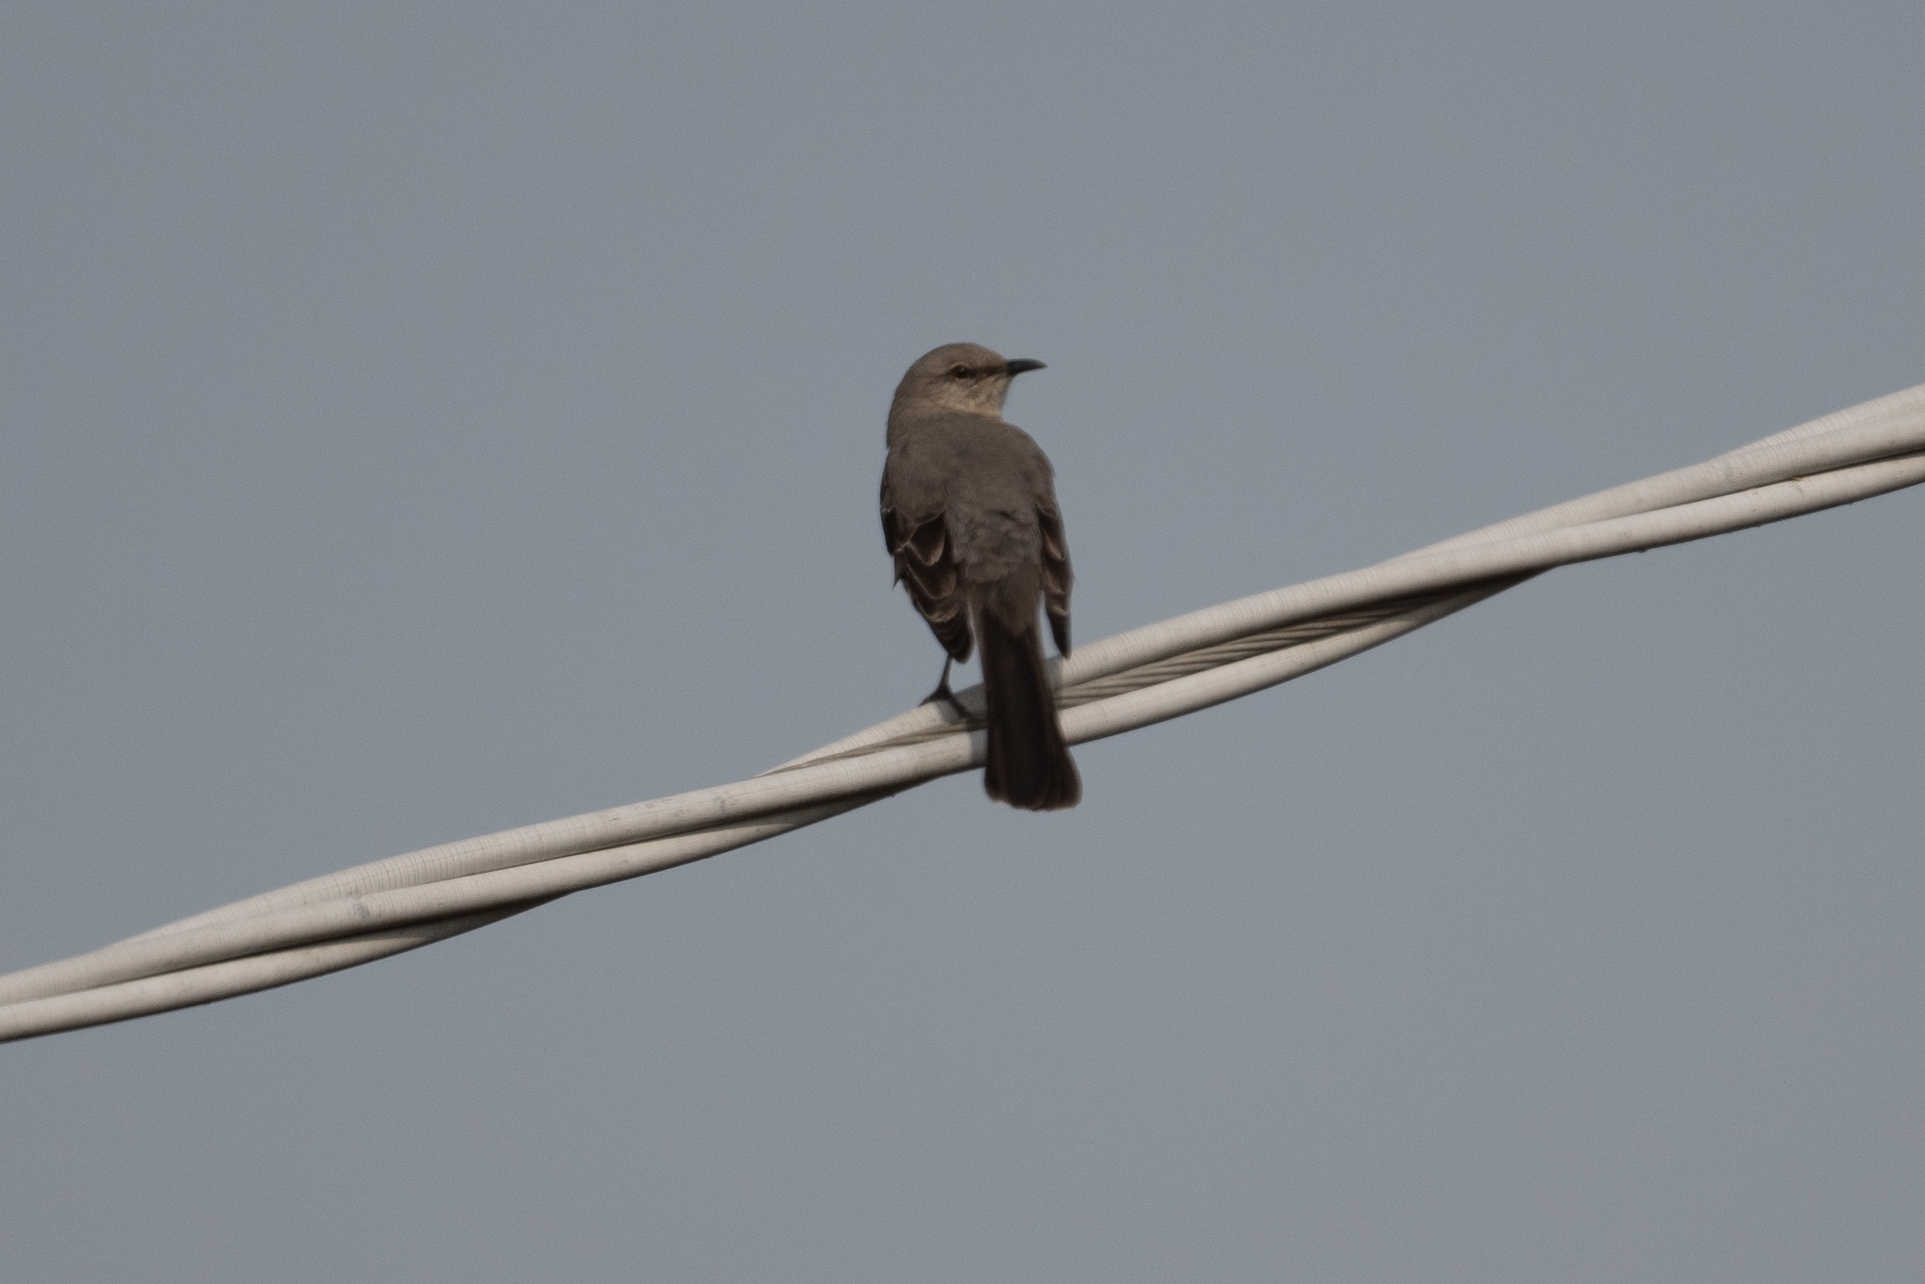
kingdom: Animalia
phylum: Chordata
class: Aves
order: Passeriformes
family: Mimidae
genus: Mimus
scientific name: Mimus polyglottos
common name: Northern mockingbird
